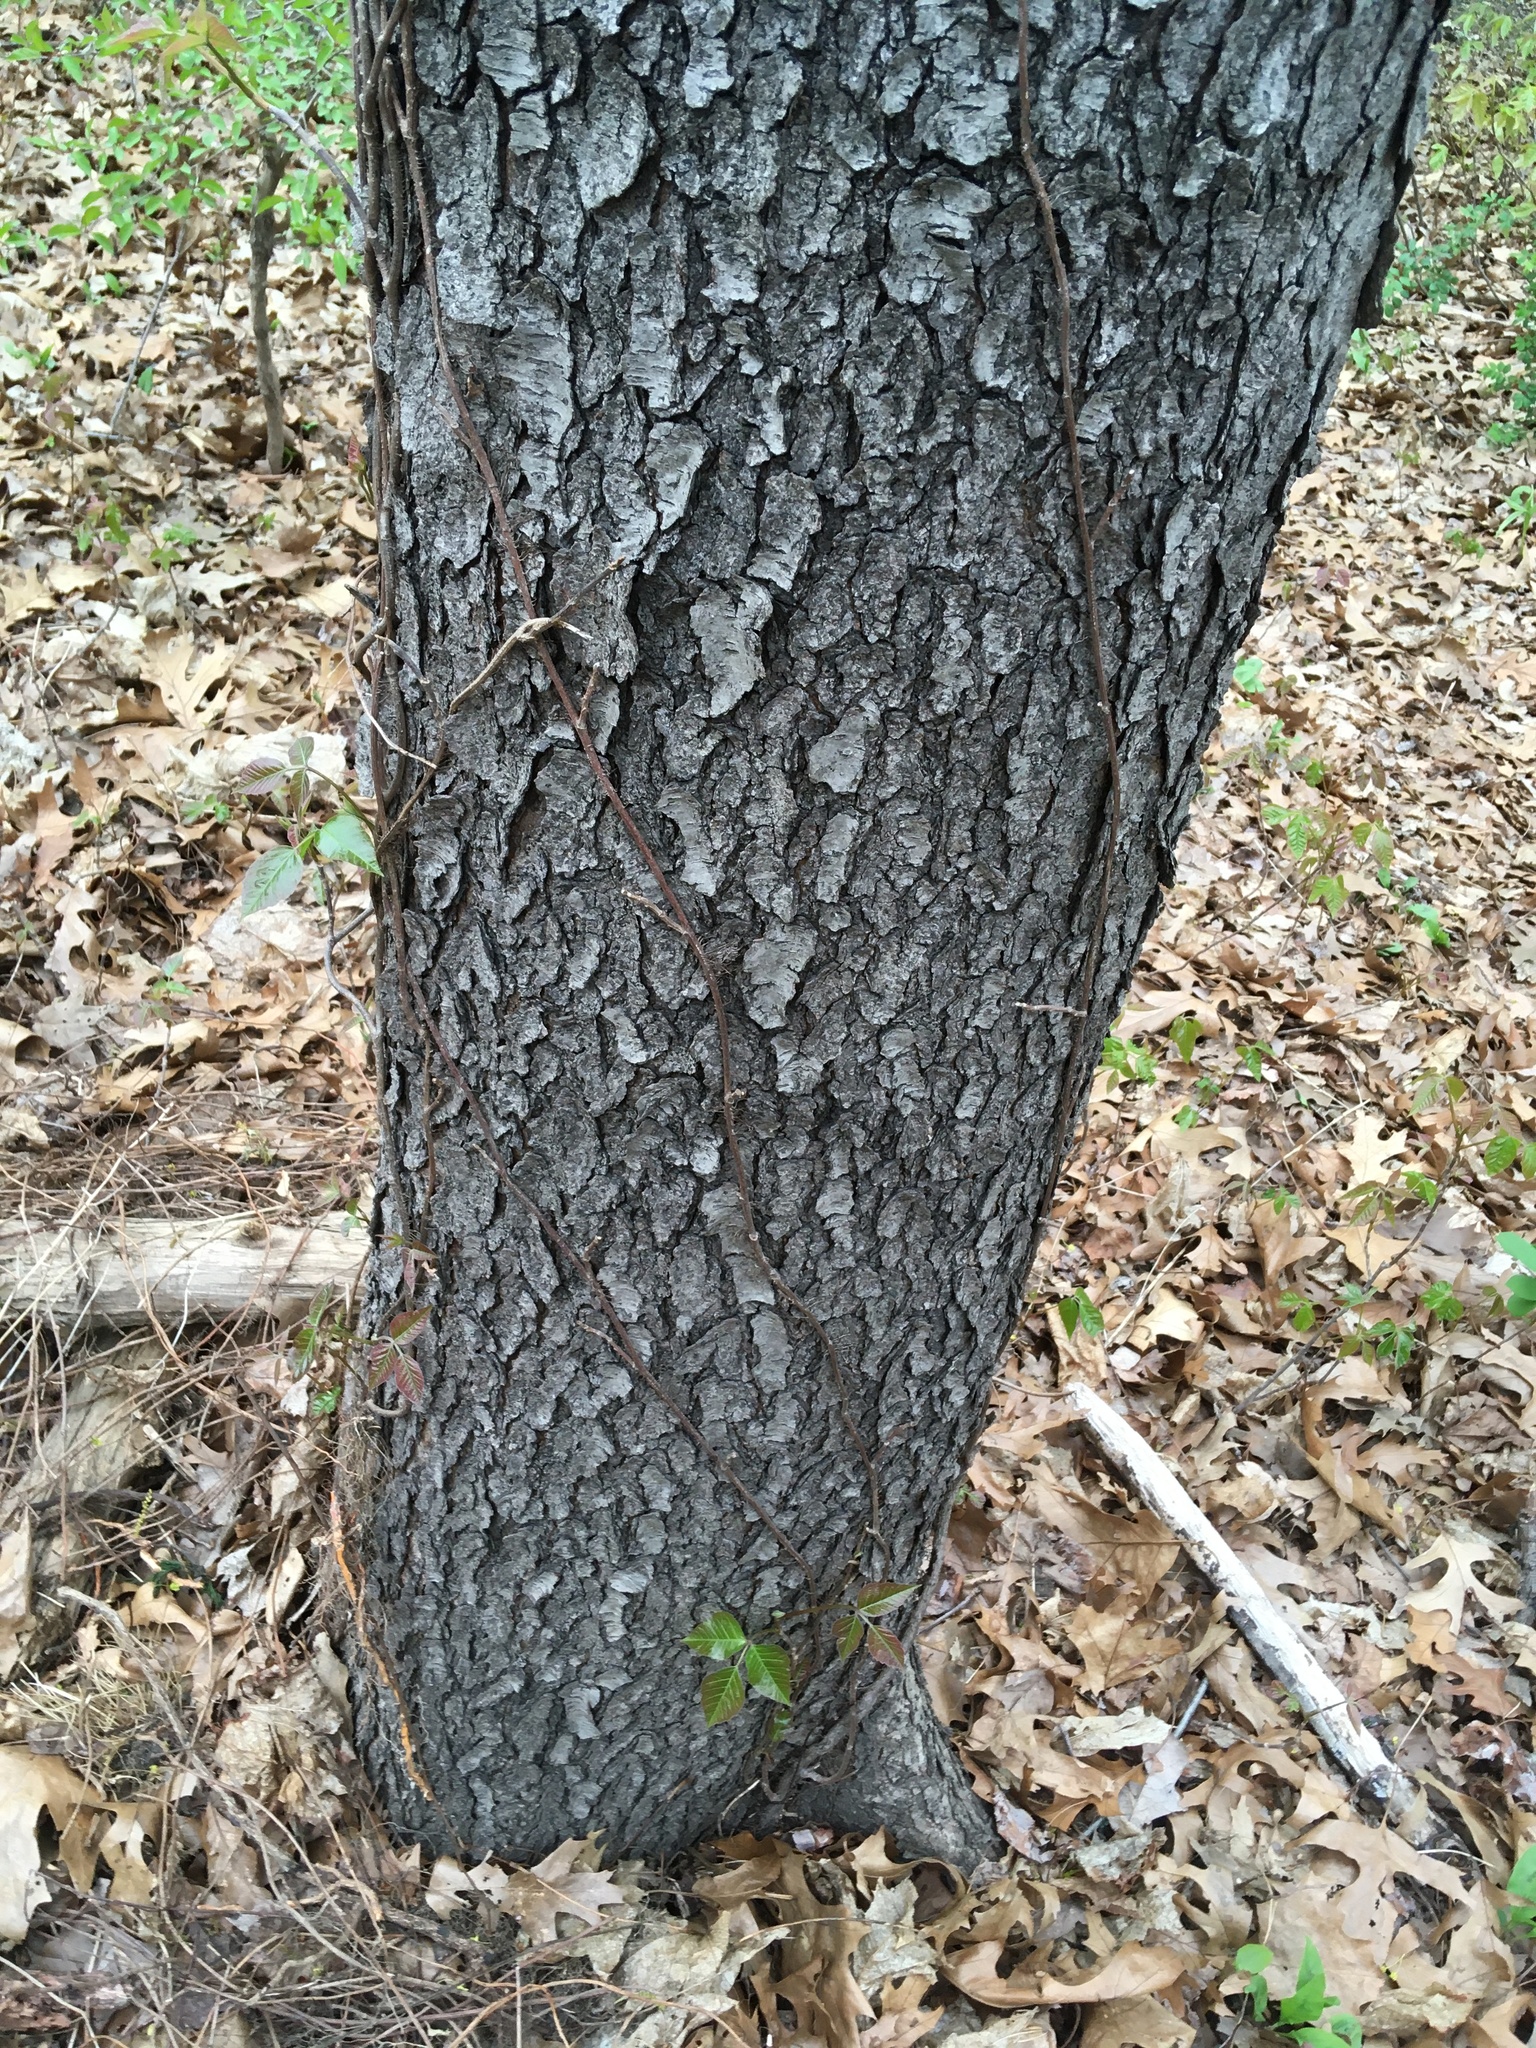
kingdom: Plantae
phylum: Tracheophyta
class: Magnoliopsida
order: Rosales
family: Rosaceae
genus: Prunus
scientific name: Prunus serotina
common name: Black cherry
